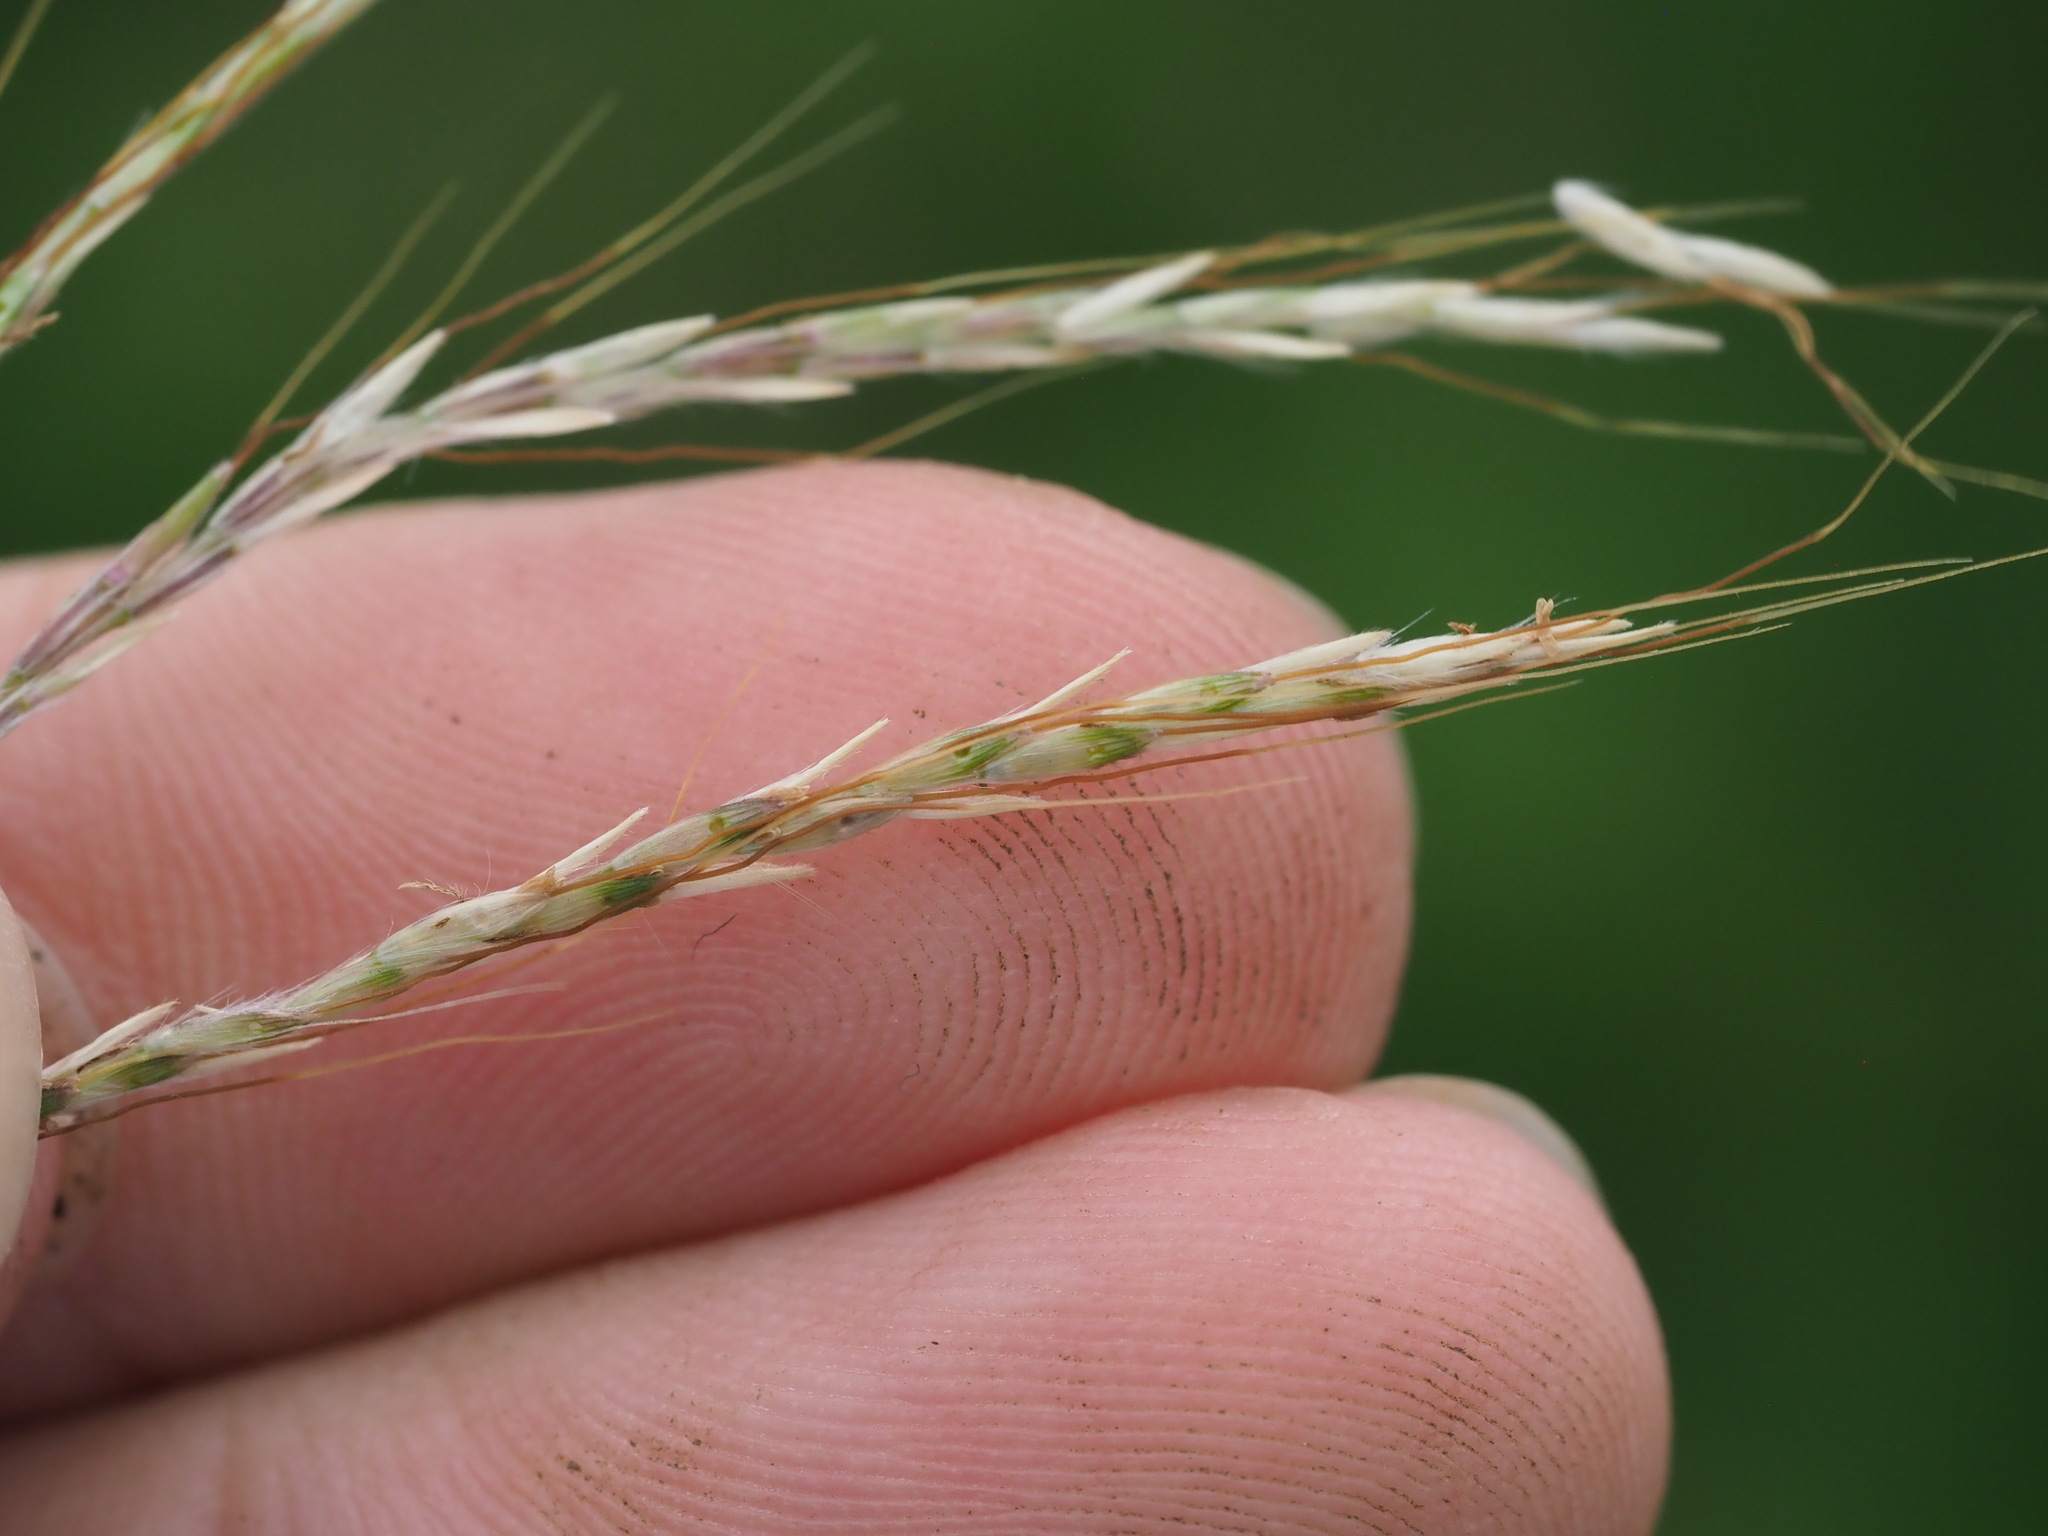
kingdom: Plantae
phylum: Tracheophyta
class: Liliopsida
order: Poales
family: Poaceae
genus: Bothriochloa
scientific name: Bothriochloa pertusa
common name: Pitted beardgrass
